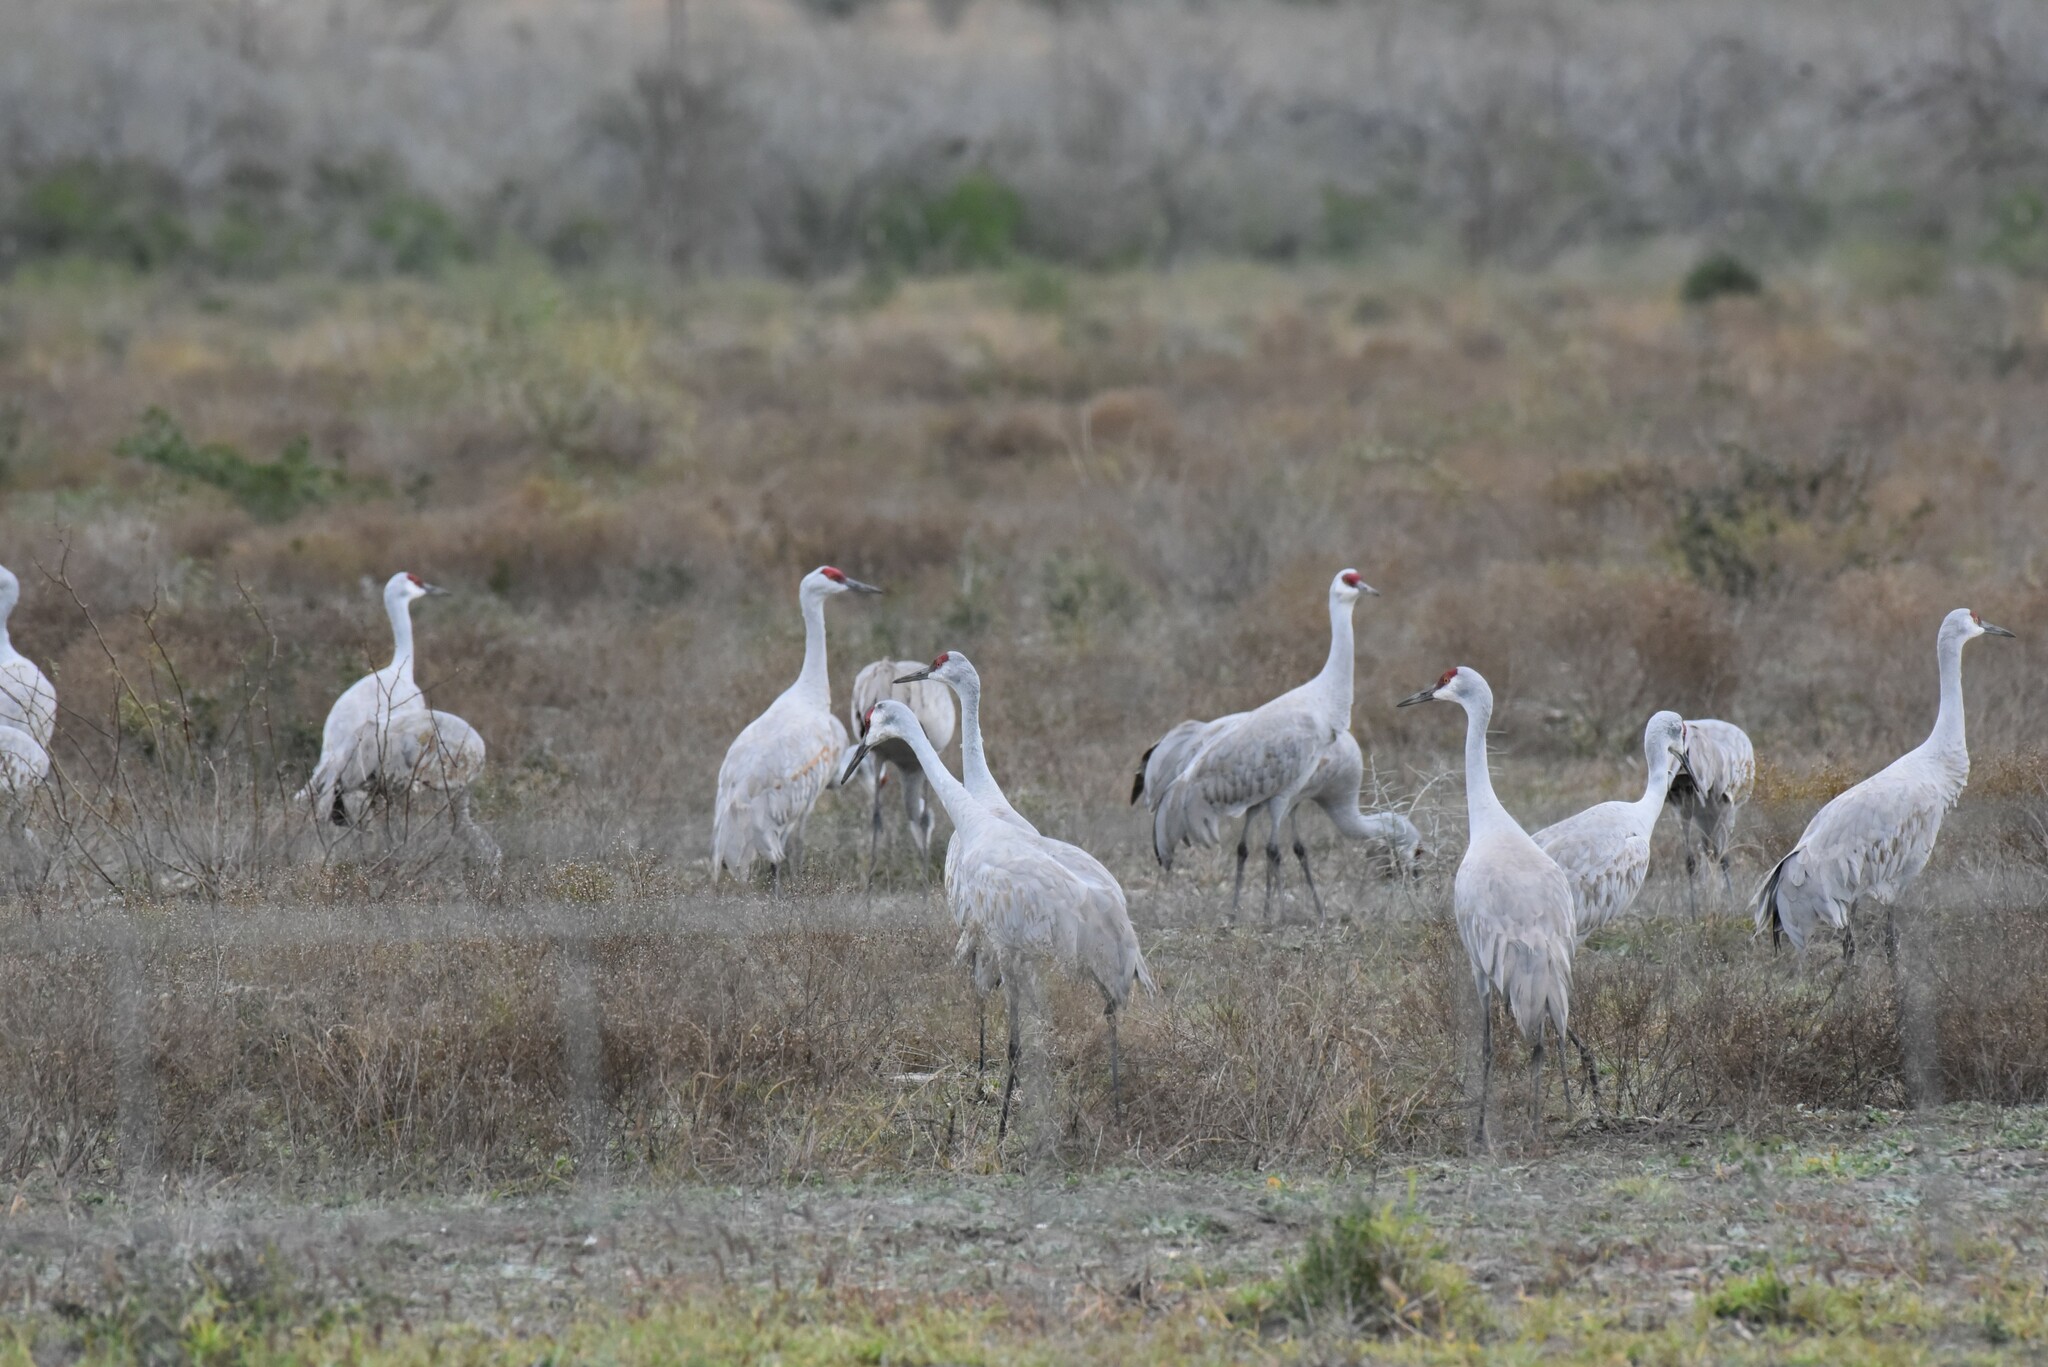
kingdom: Animalia
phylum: Chordata
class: Aves
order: Gruiformes
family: Gruidae
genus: Grus
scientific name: Grus canadensis
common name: Sandhill crane
